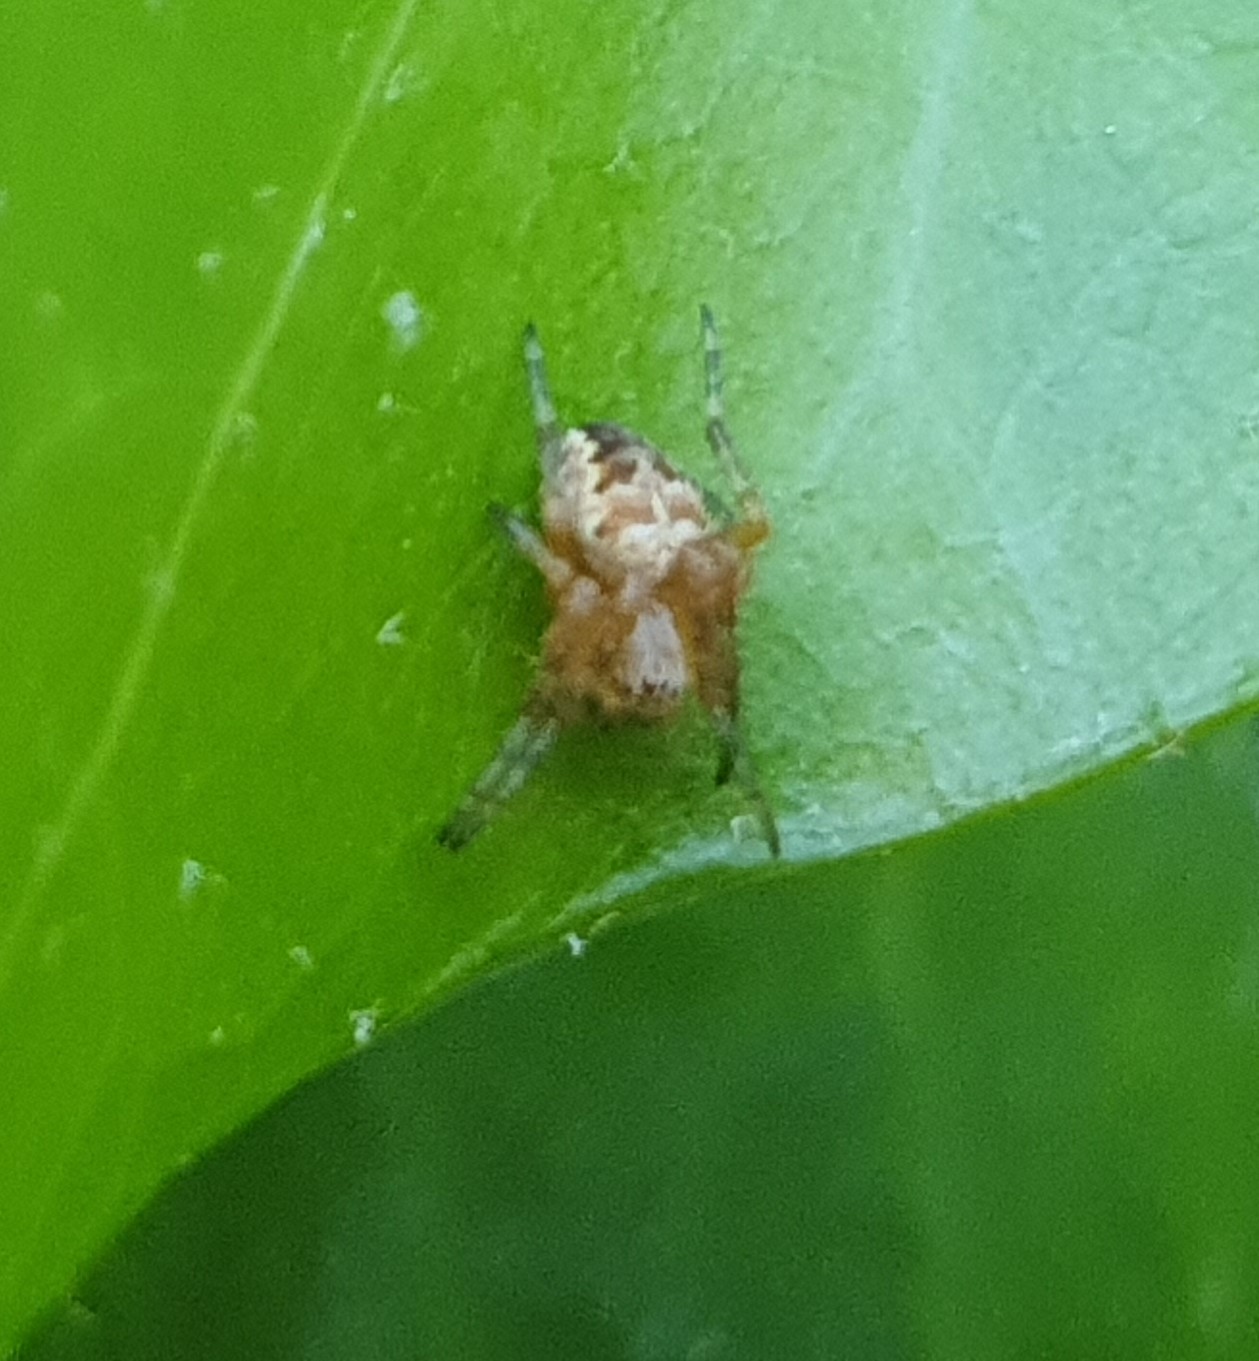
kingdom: Animalia
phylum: Arthropoda
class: Arachnida
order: Araneae
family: Araneidae
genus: Araneus
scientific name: Araneus diadematus
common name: Cross orbweaver
